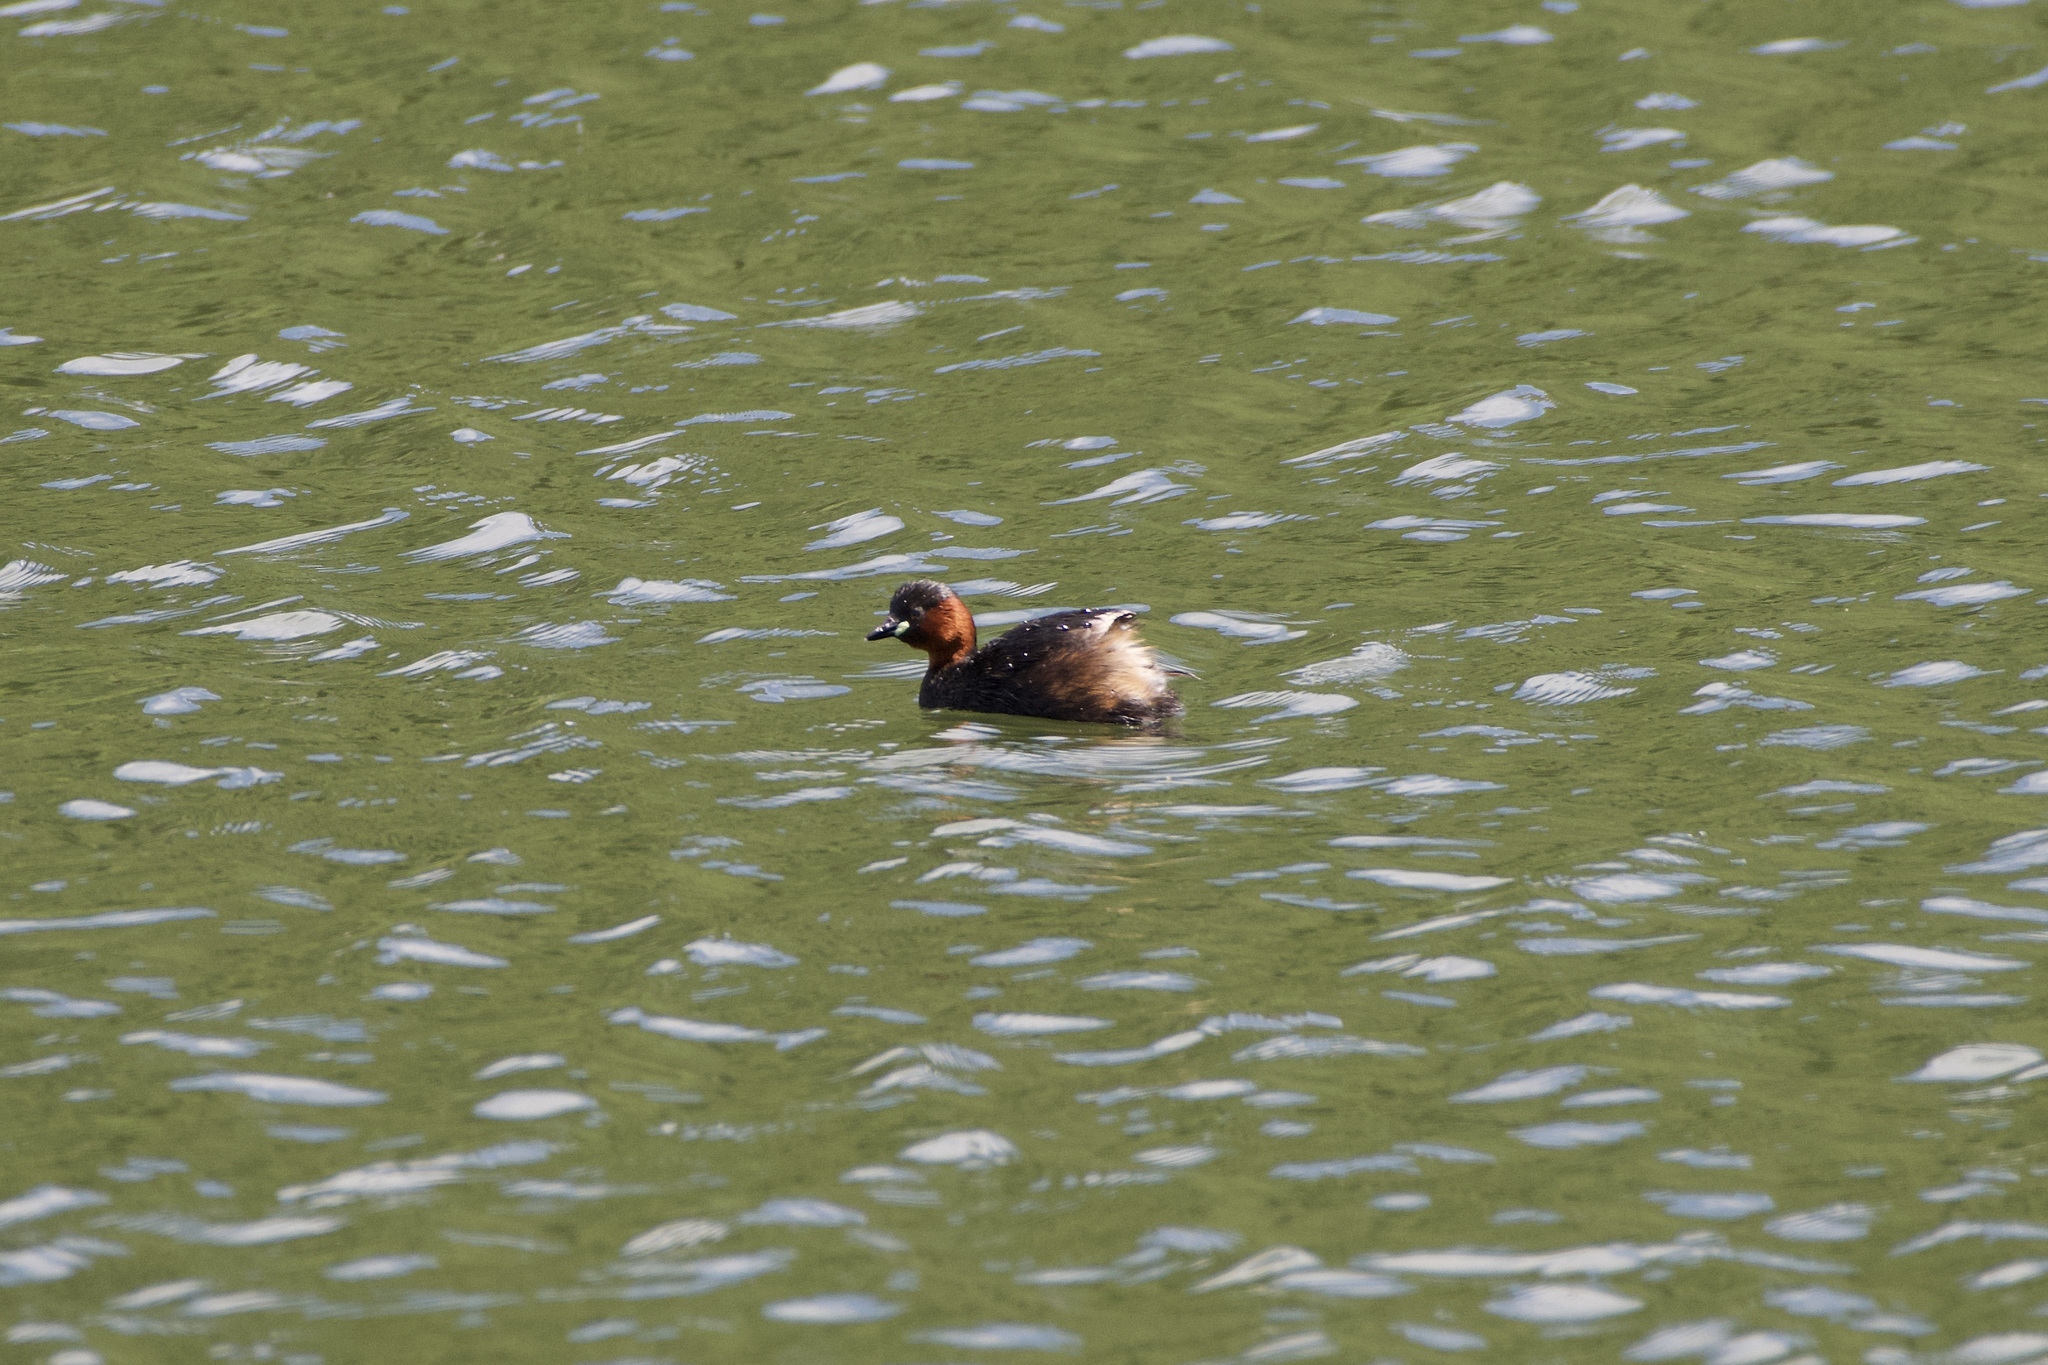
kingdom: Animalia
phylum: Chordata
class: Aves
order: Podicipediformes
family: Podicipedidae
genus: Tachybaptus
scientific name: Tachybaptus ruficollis
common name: Little grebe
